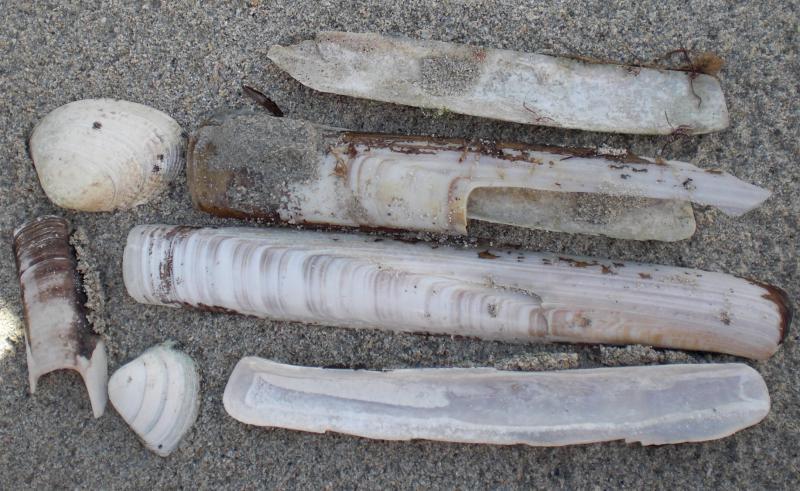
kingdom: Animalia
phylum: Mollusca
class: Bivalvia
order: Adapedonta
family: Pharidae
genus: Ensis
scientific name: Ensis siliqua
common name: Pod razor shell
